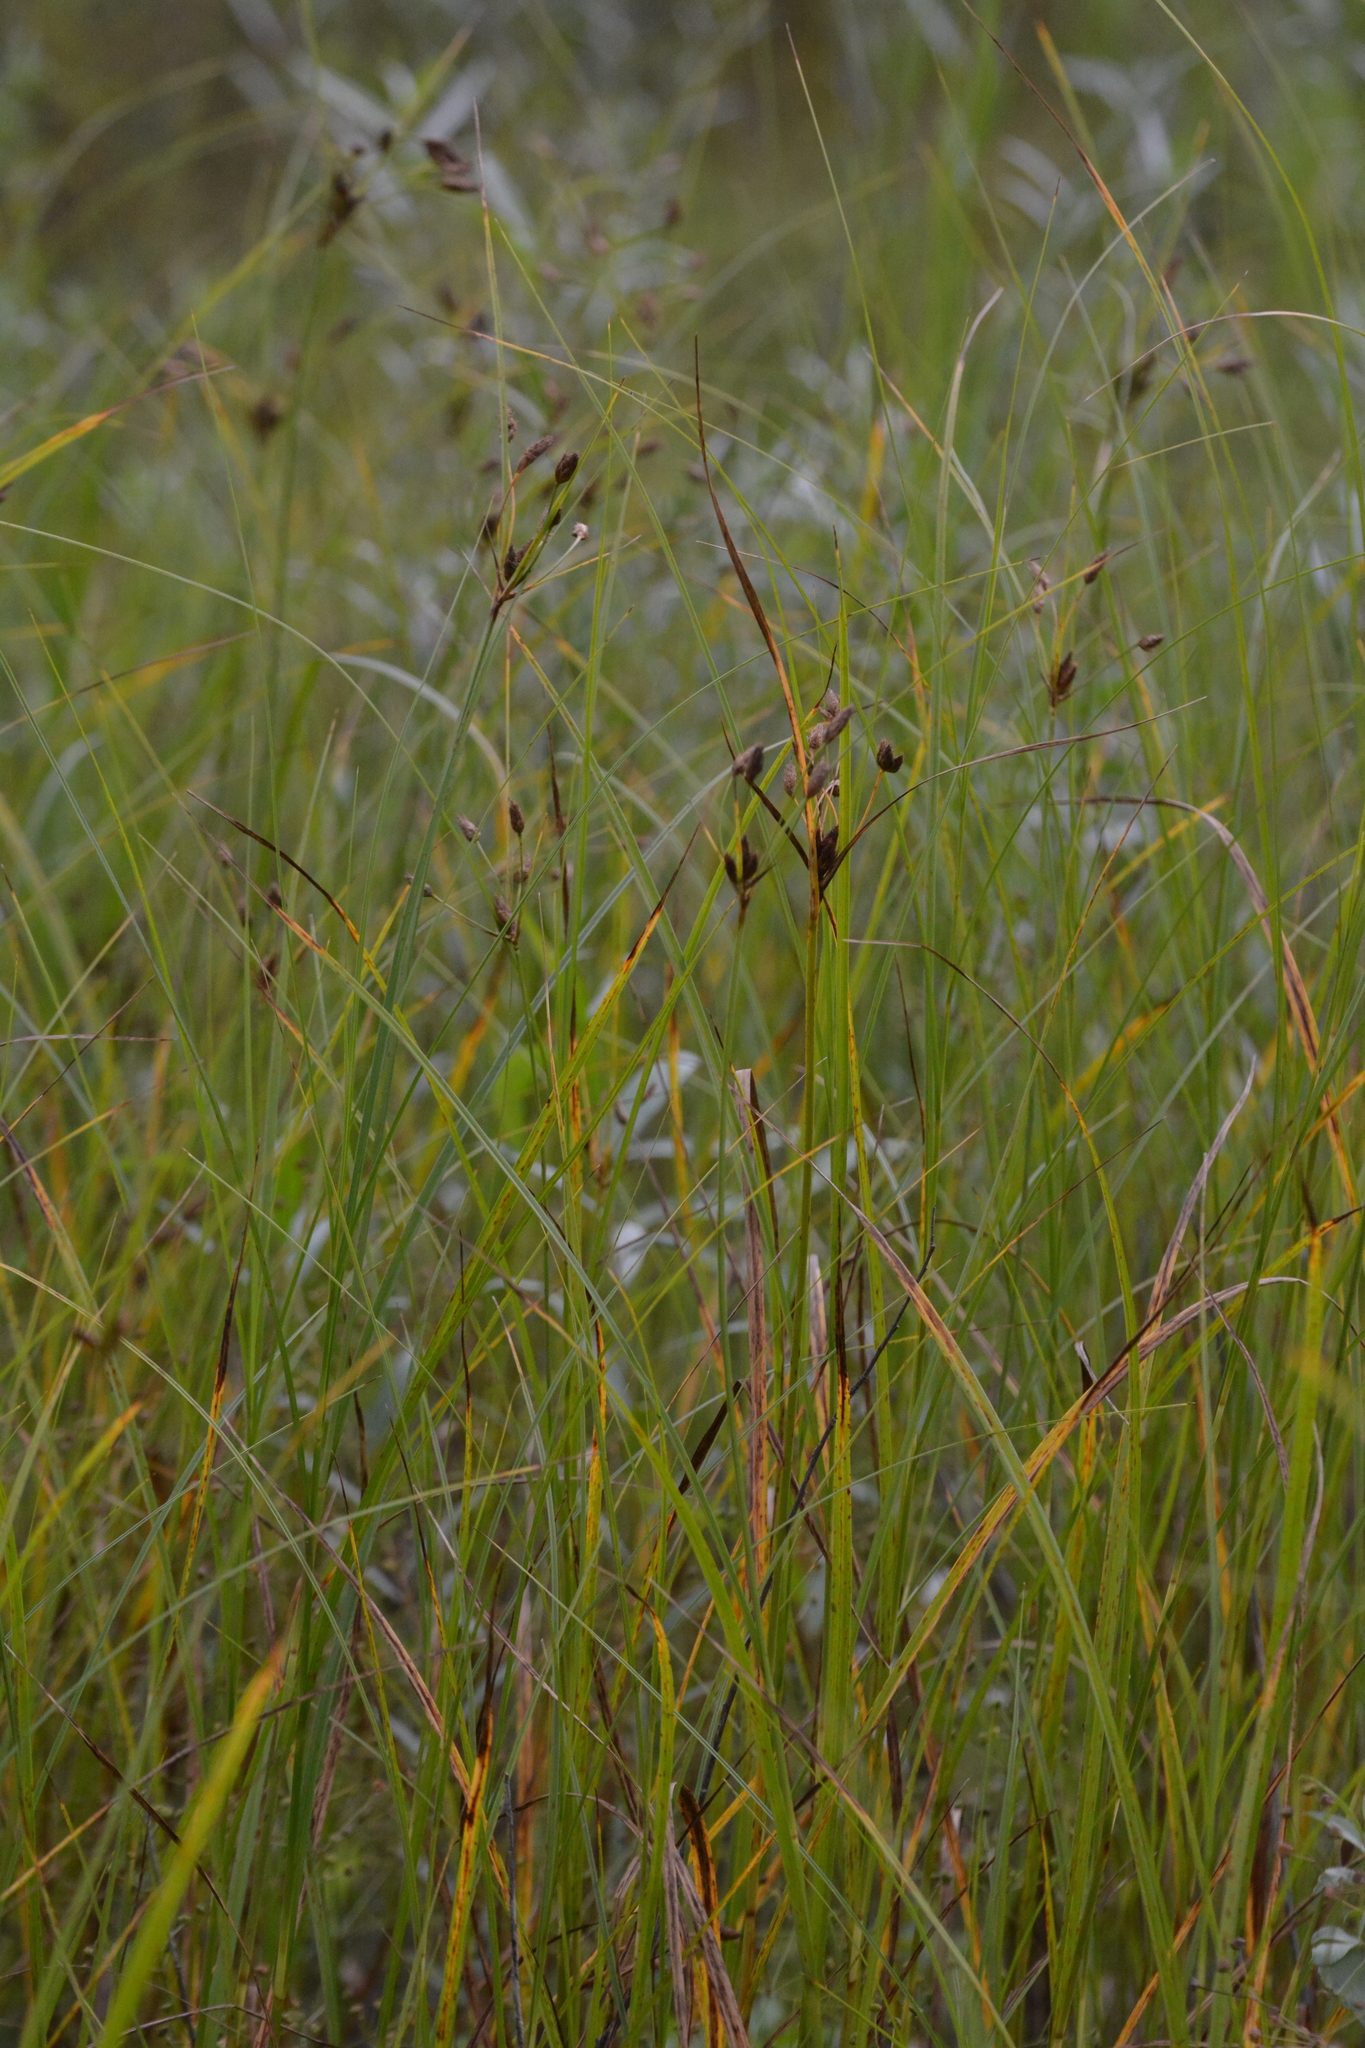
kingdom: Plantae
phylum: Tracheophyta
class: Liliopsida
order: Poales
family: Cyperaceae
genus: Bolboschoenus
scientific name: Bolboschoenus laticarpus
